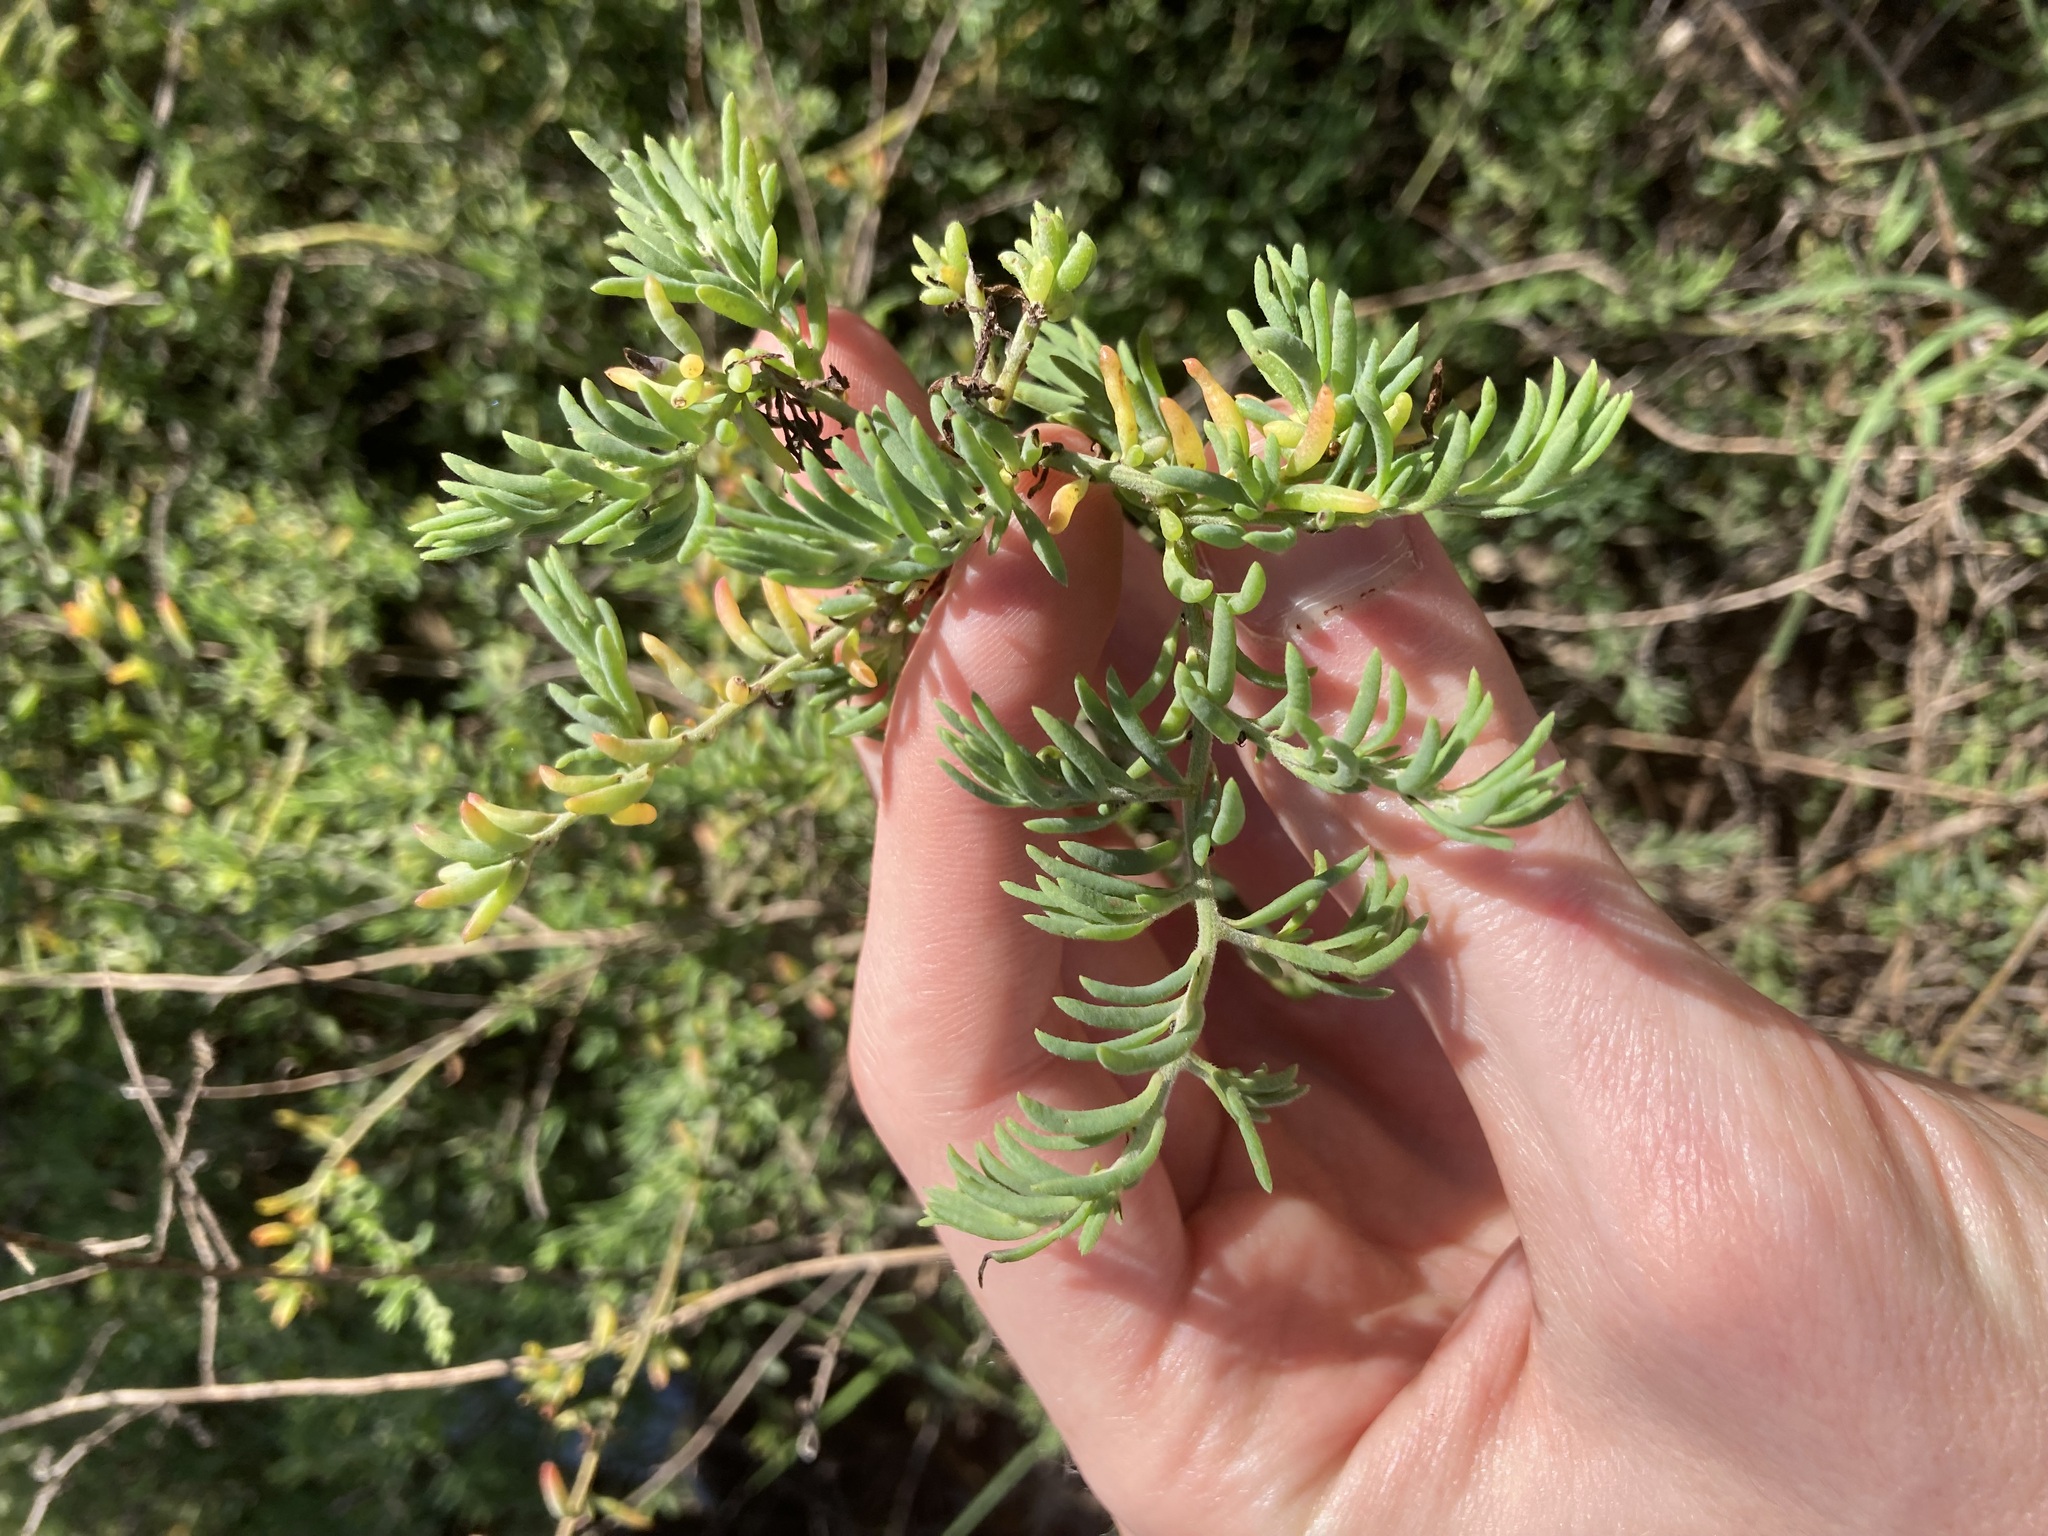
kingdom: Plantae
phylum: Tracheophyta
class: Magnoliopsida
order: Caryophyllales
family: Amaranthaceae
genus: Enchylaena
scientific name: Enchylaena tomentosa
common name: Ruby saltbush
